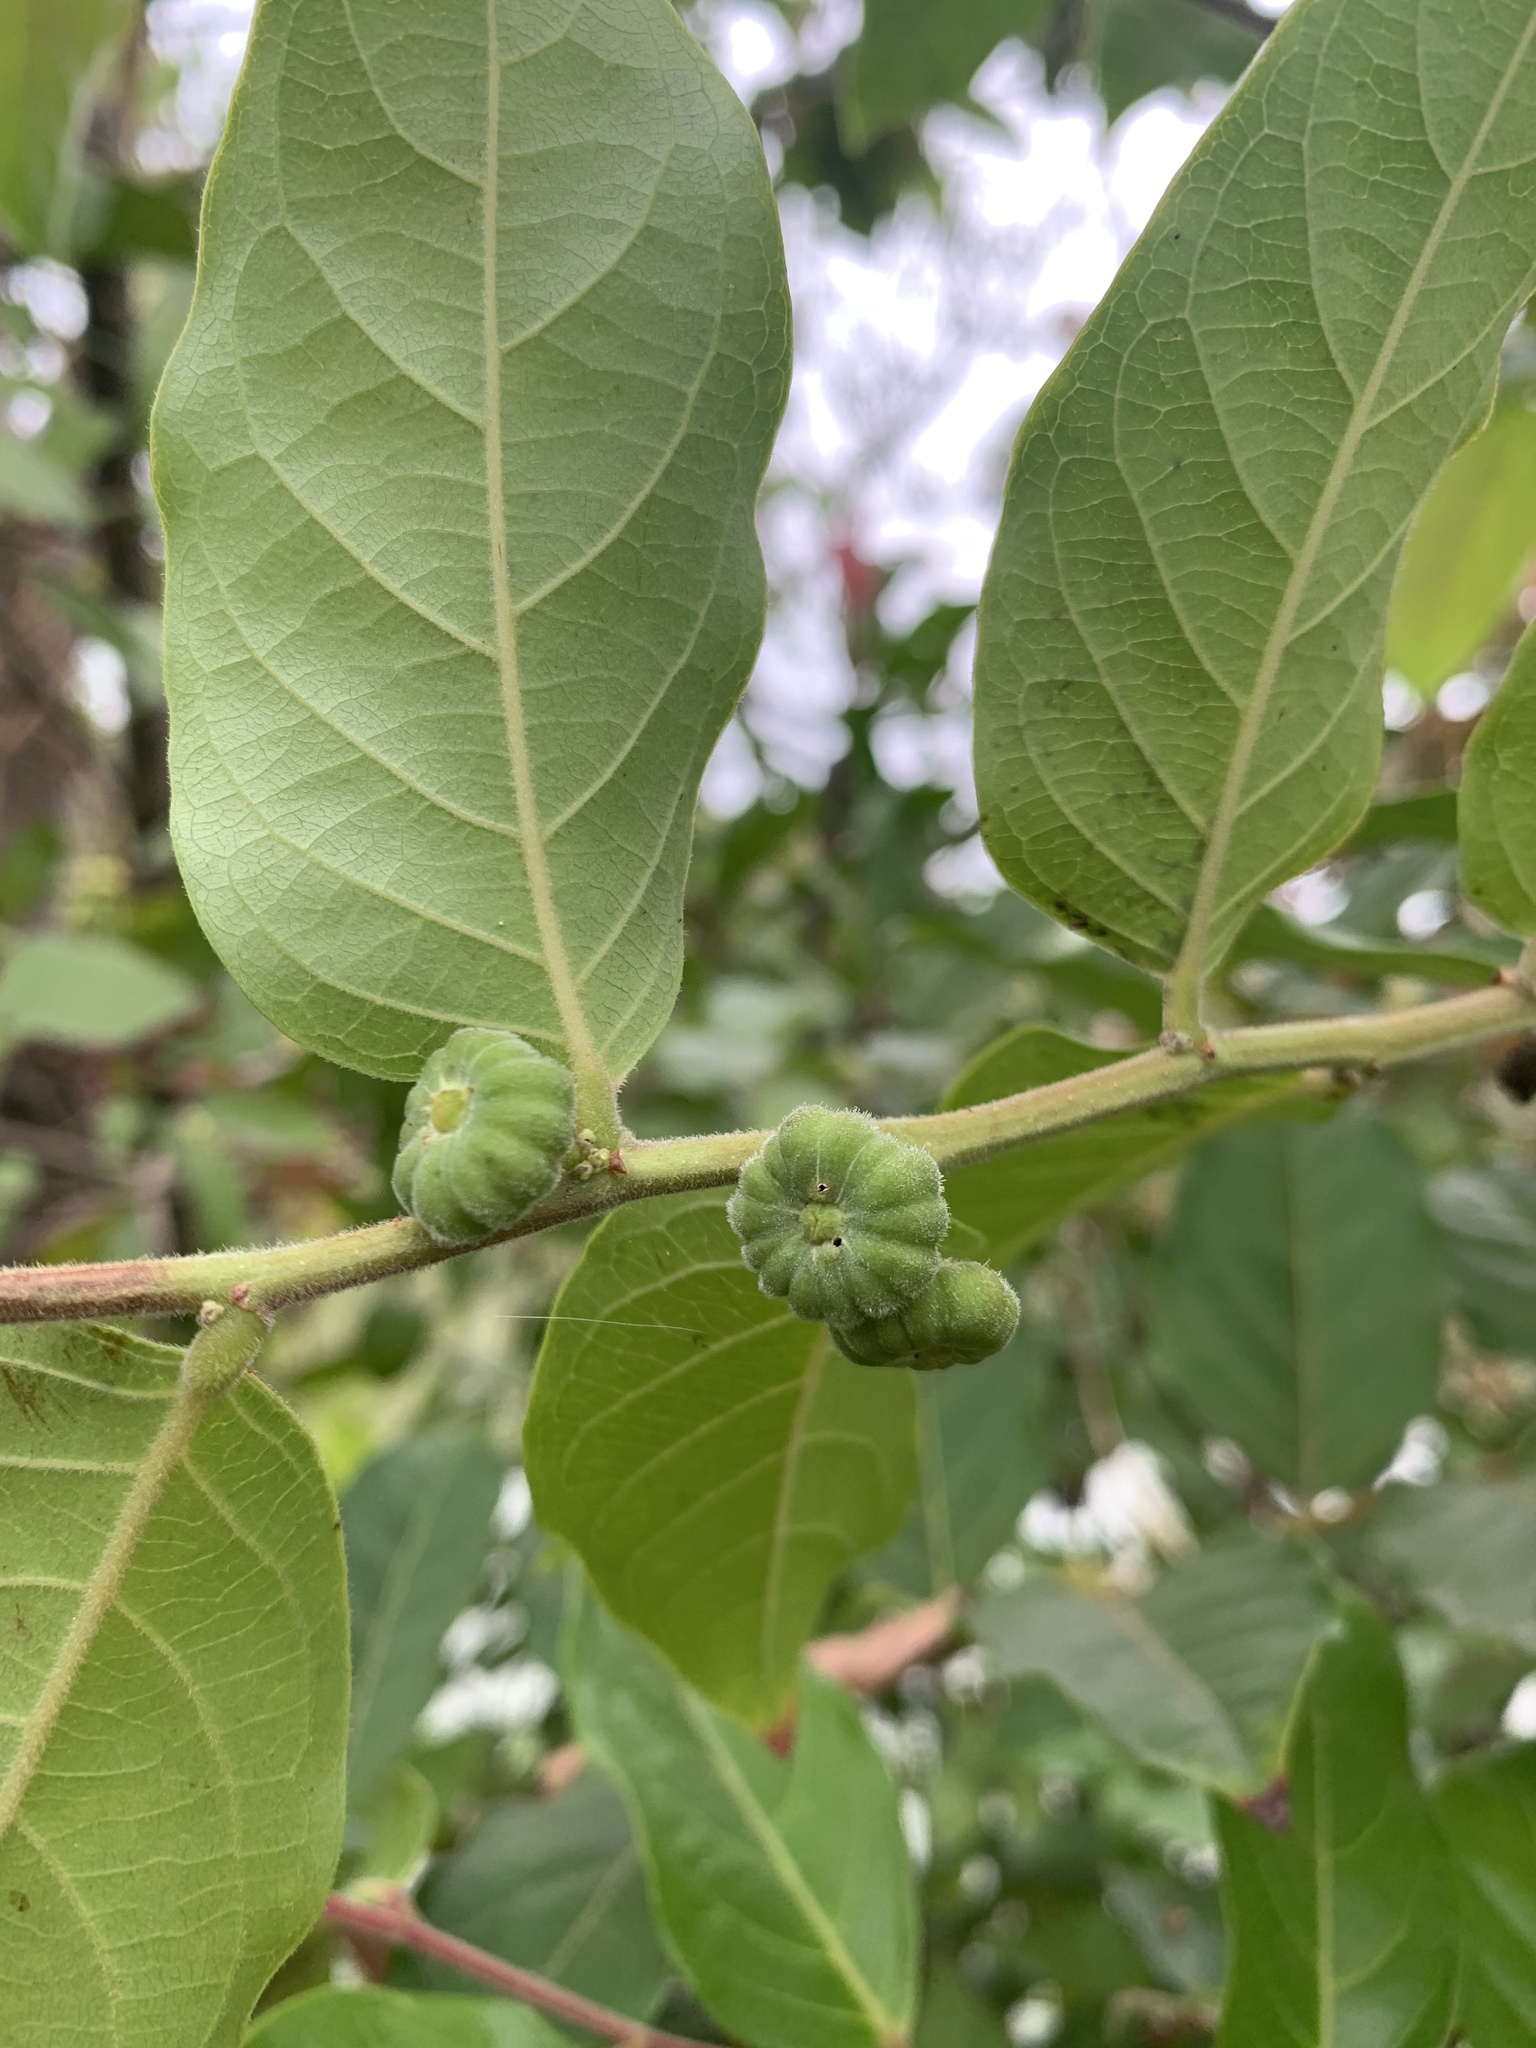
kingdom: Plantae
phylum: Tracheophyta
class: Magnoliopsida
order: Malpighiales
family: Phyllanthaceae
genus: Glochidion
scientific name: Glochidion philippicum
